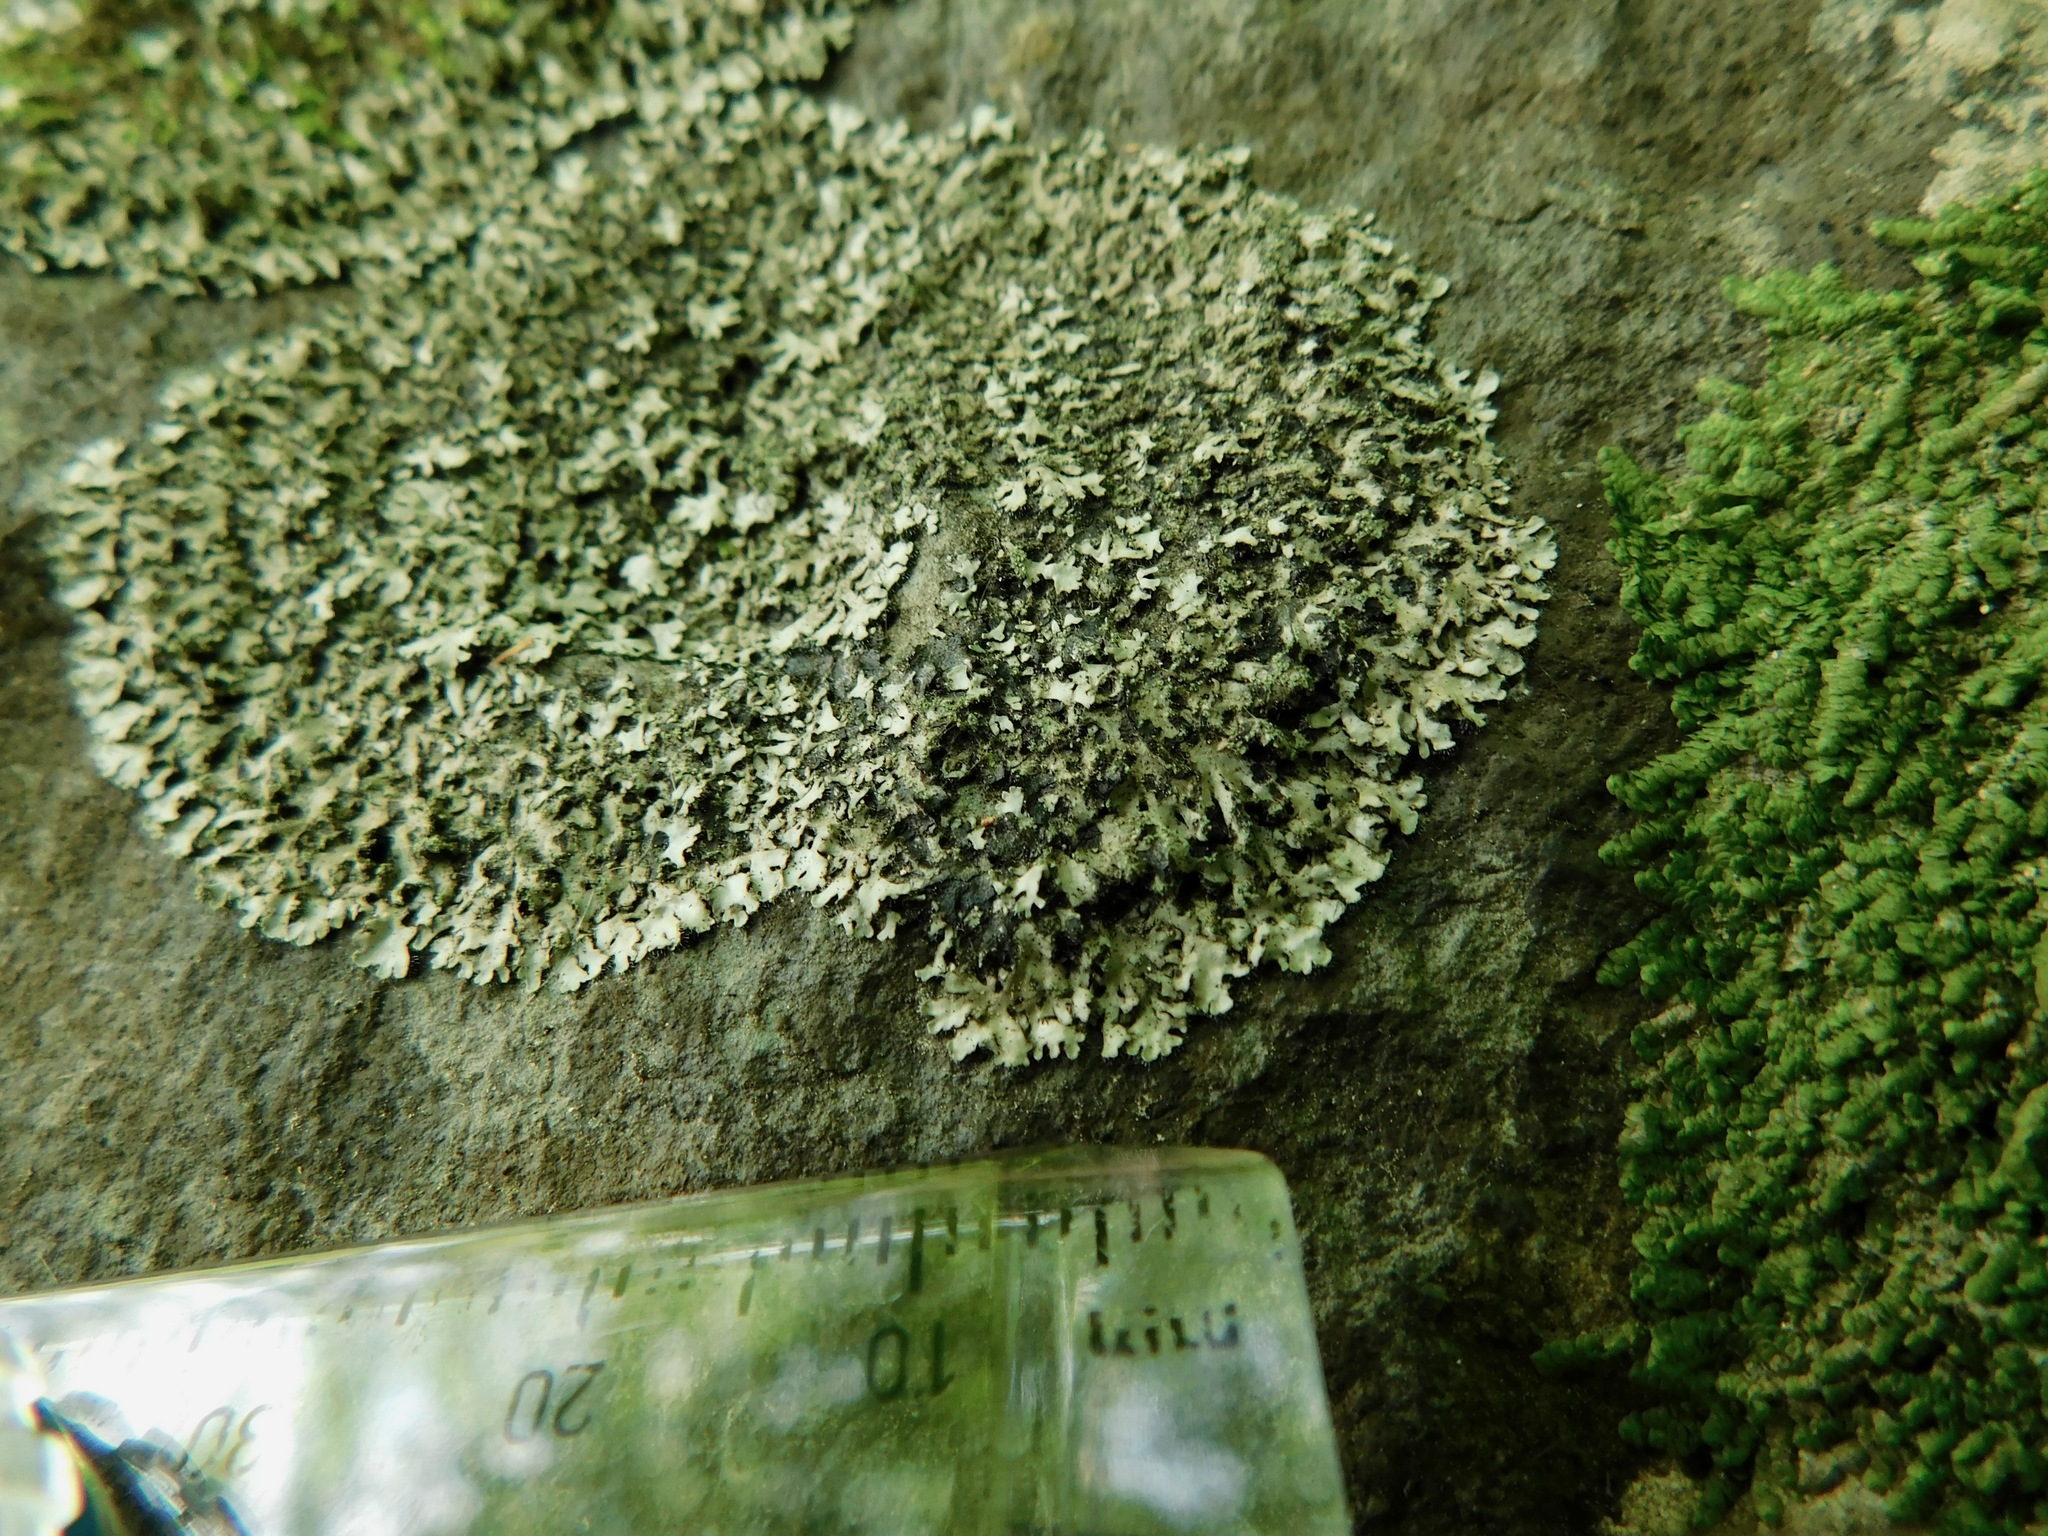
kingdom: Fungi
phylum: Ascomycota
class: Lecanoromycetes
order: Caliciales
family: Physciaceae
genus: Phaeophyscia
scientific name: Phaeophyscia adiastola
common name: Powder-tipped shadow lichen
